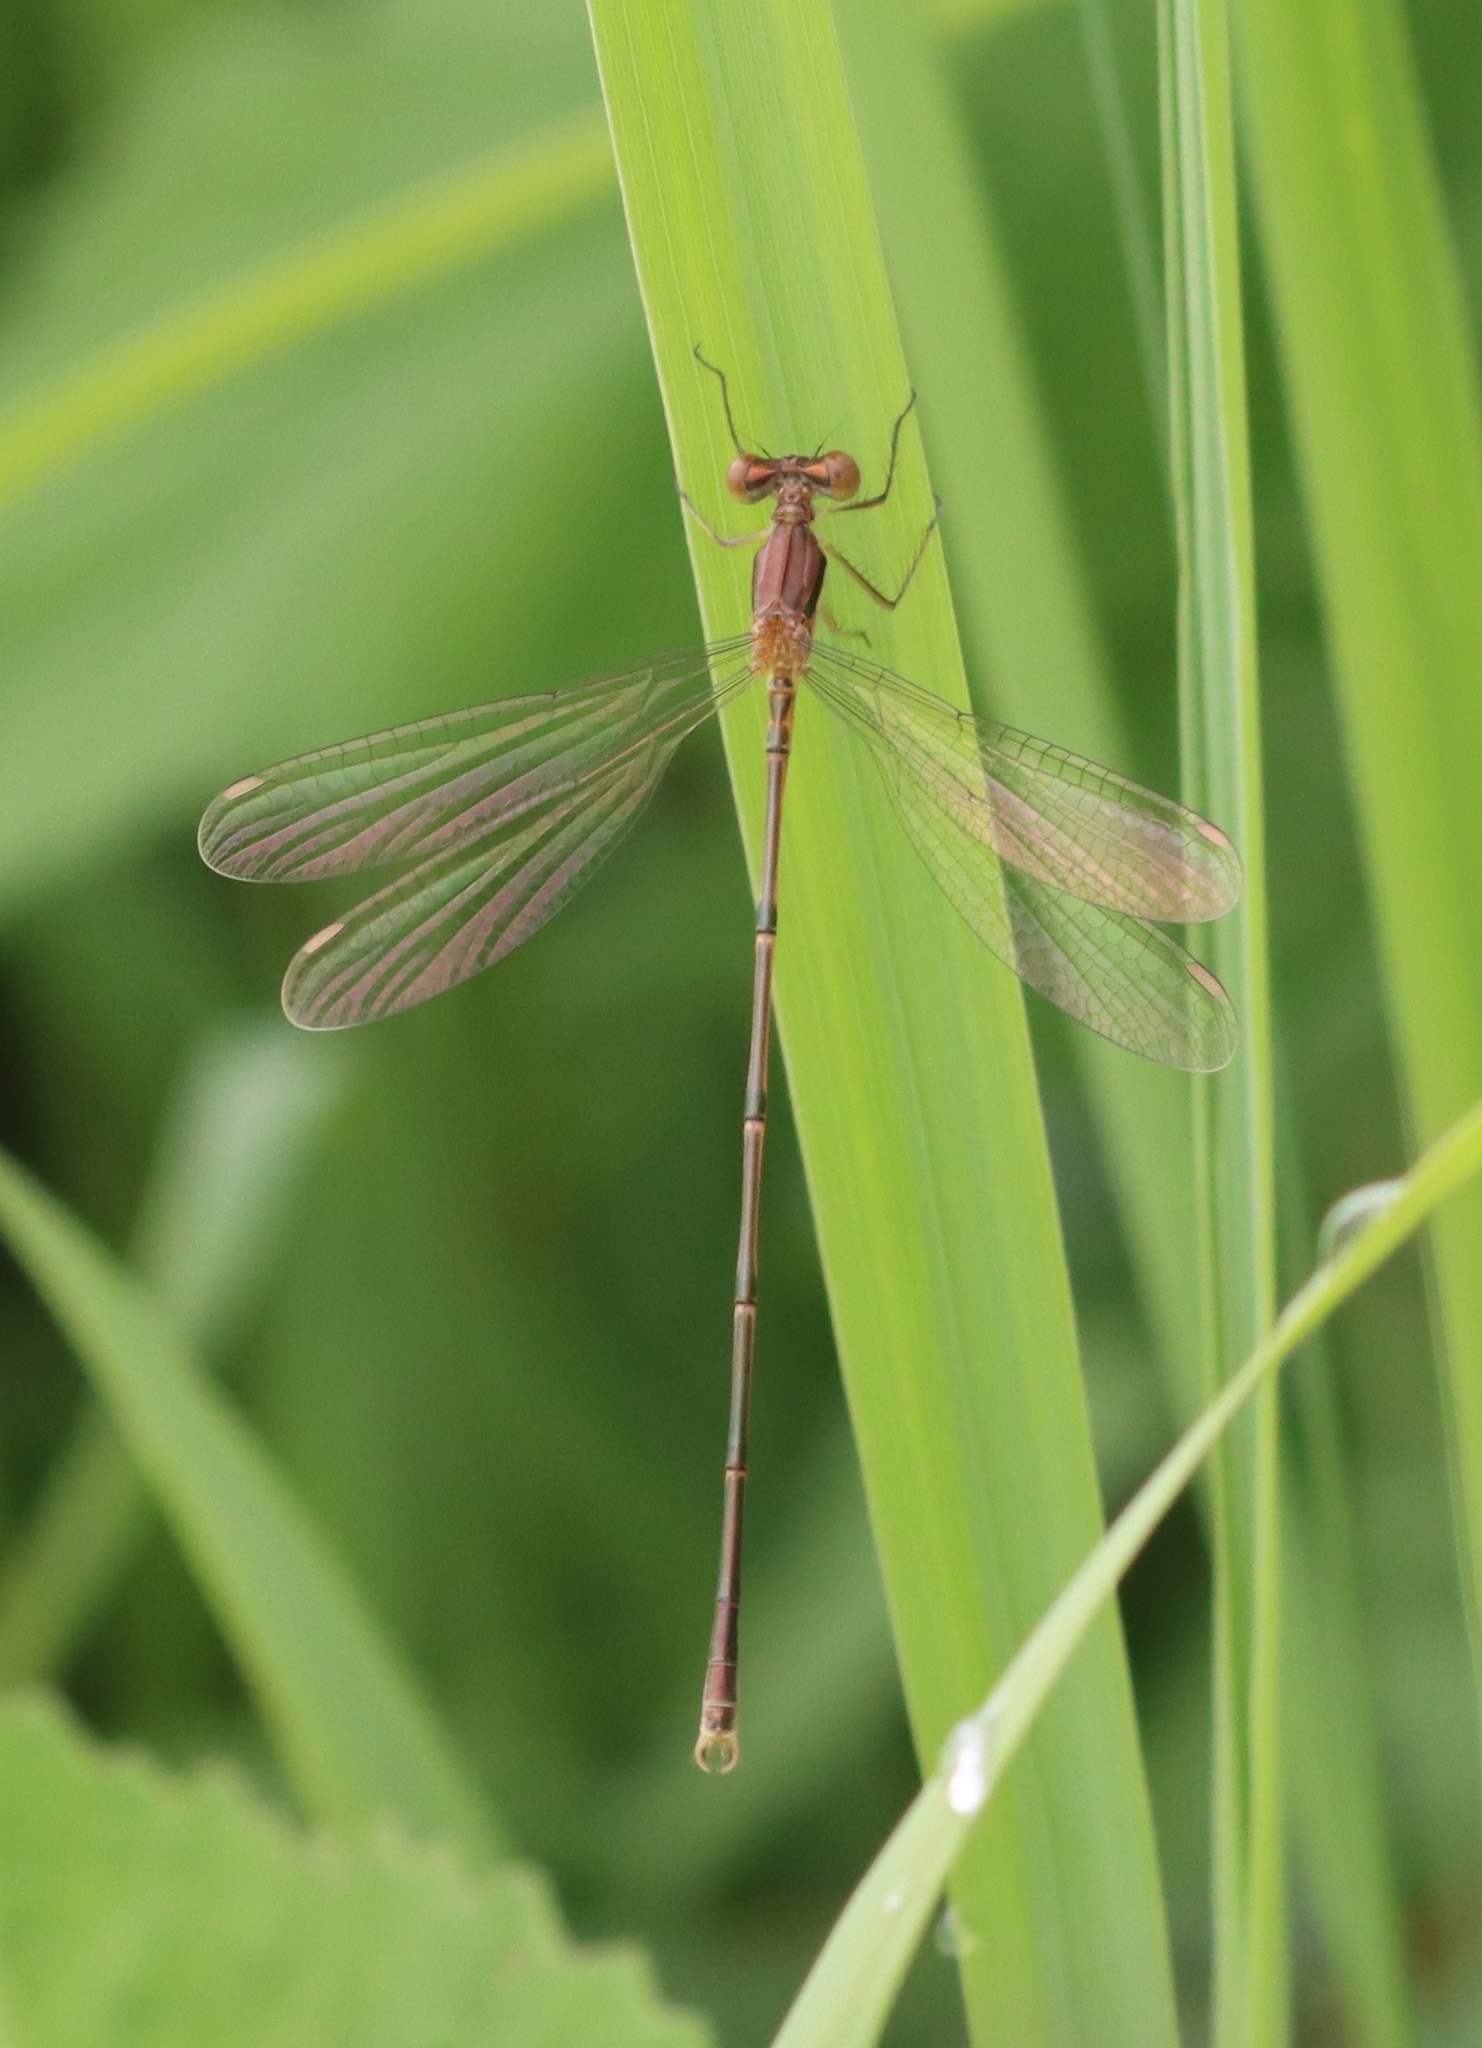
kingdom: Animalia
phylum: Arthropoda
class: Insecta
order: Odonata
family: Lestidae
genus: Lestes
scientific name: Lestes rectangularis
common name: Slender spreadwing
